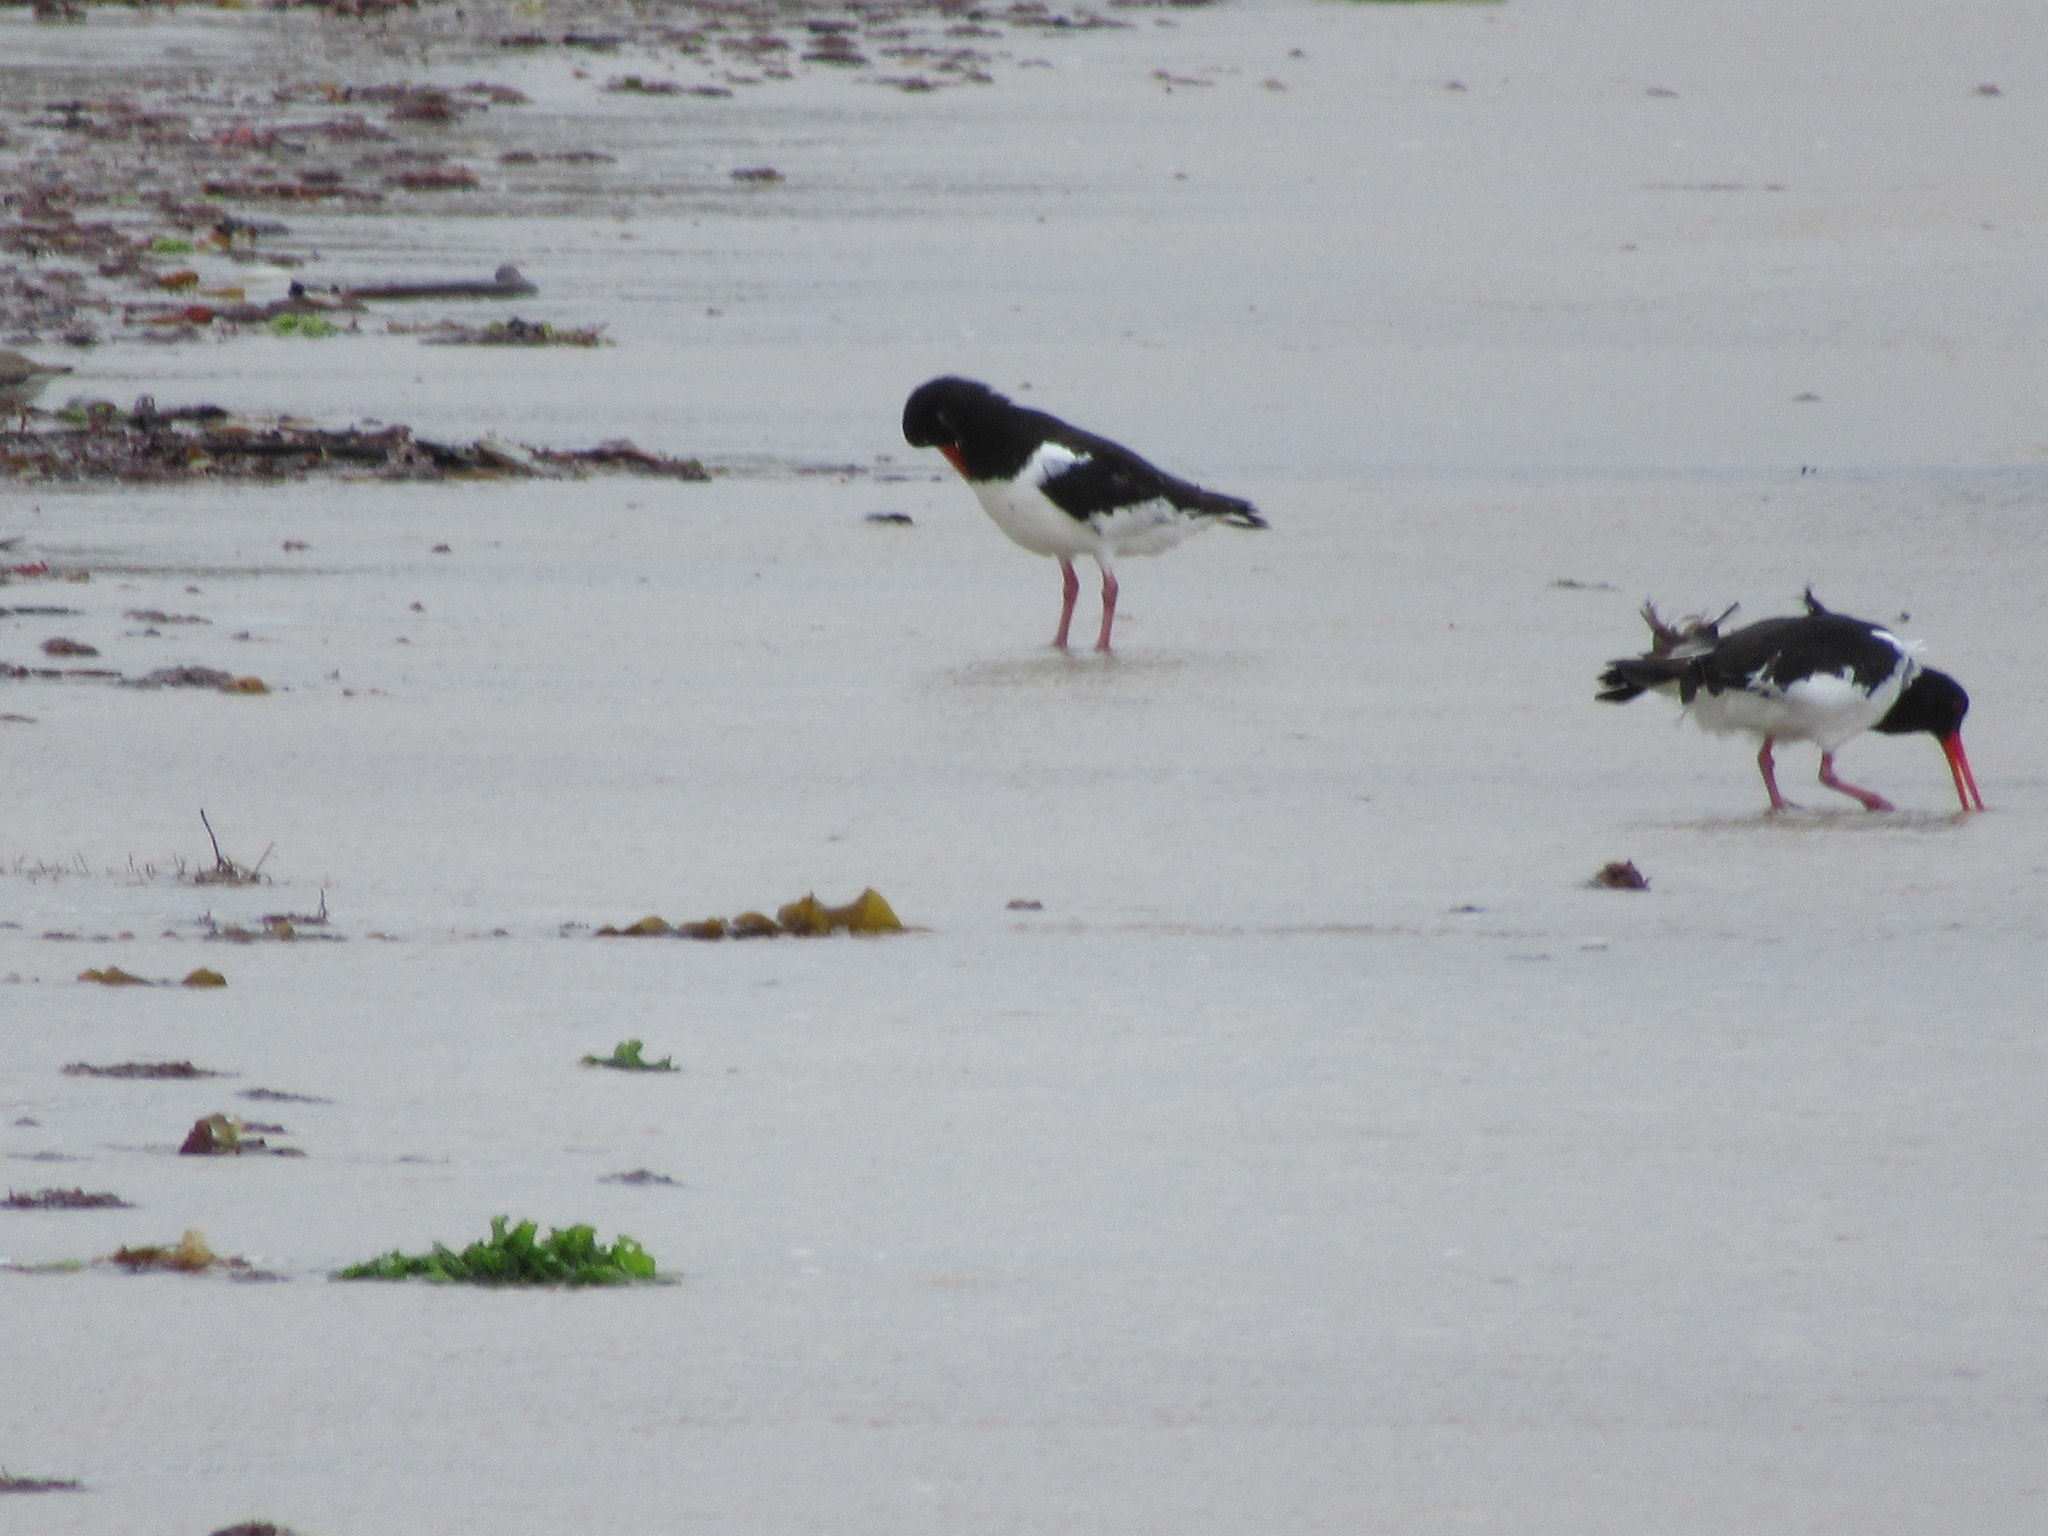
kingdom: Animalia
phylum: Chordata
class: Aves
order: Charadriiformes
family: Haematopodidae
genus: Haematopus
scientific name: Haematopus ostralegus
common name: Eurasian oystercatcher
